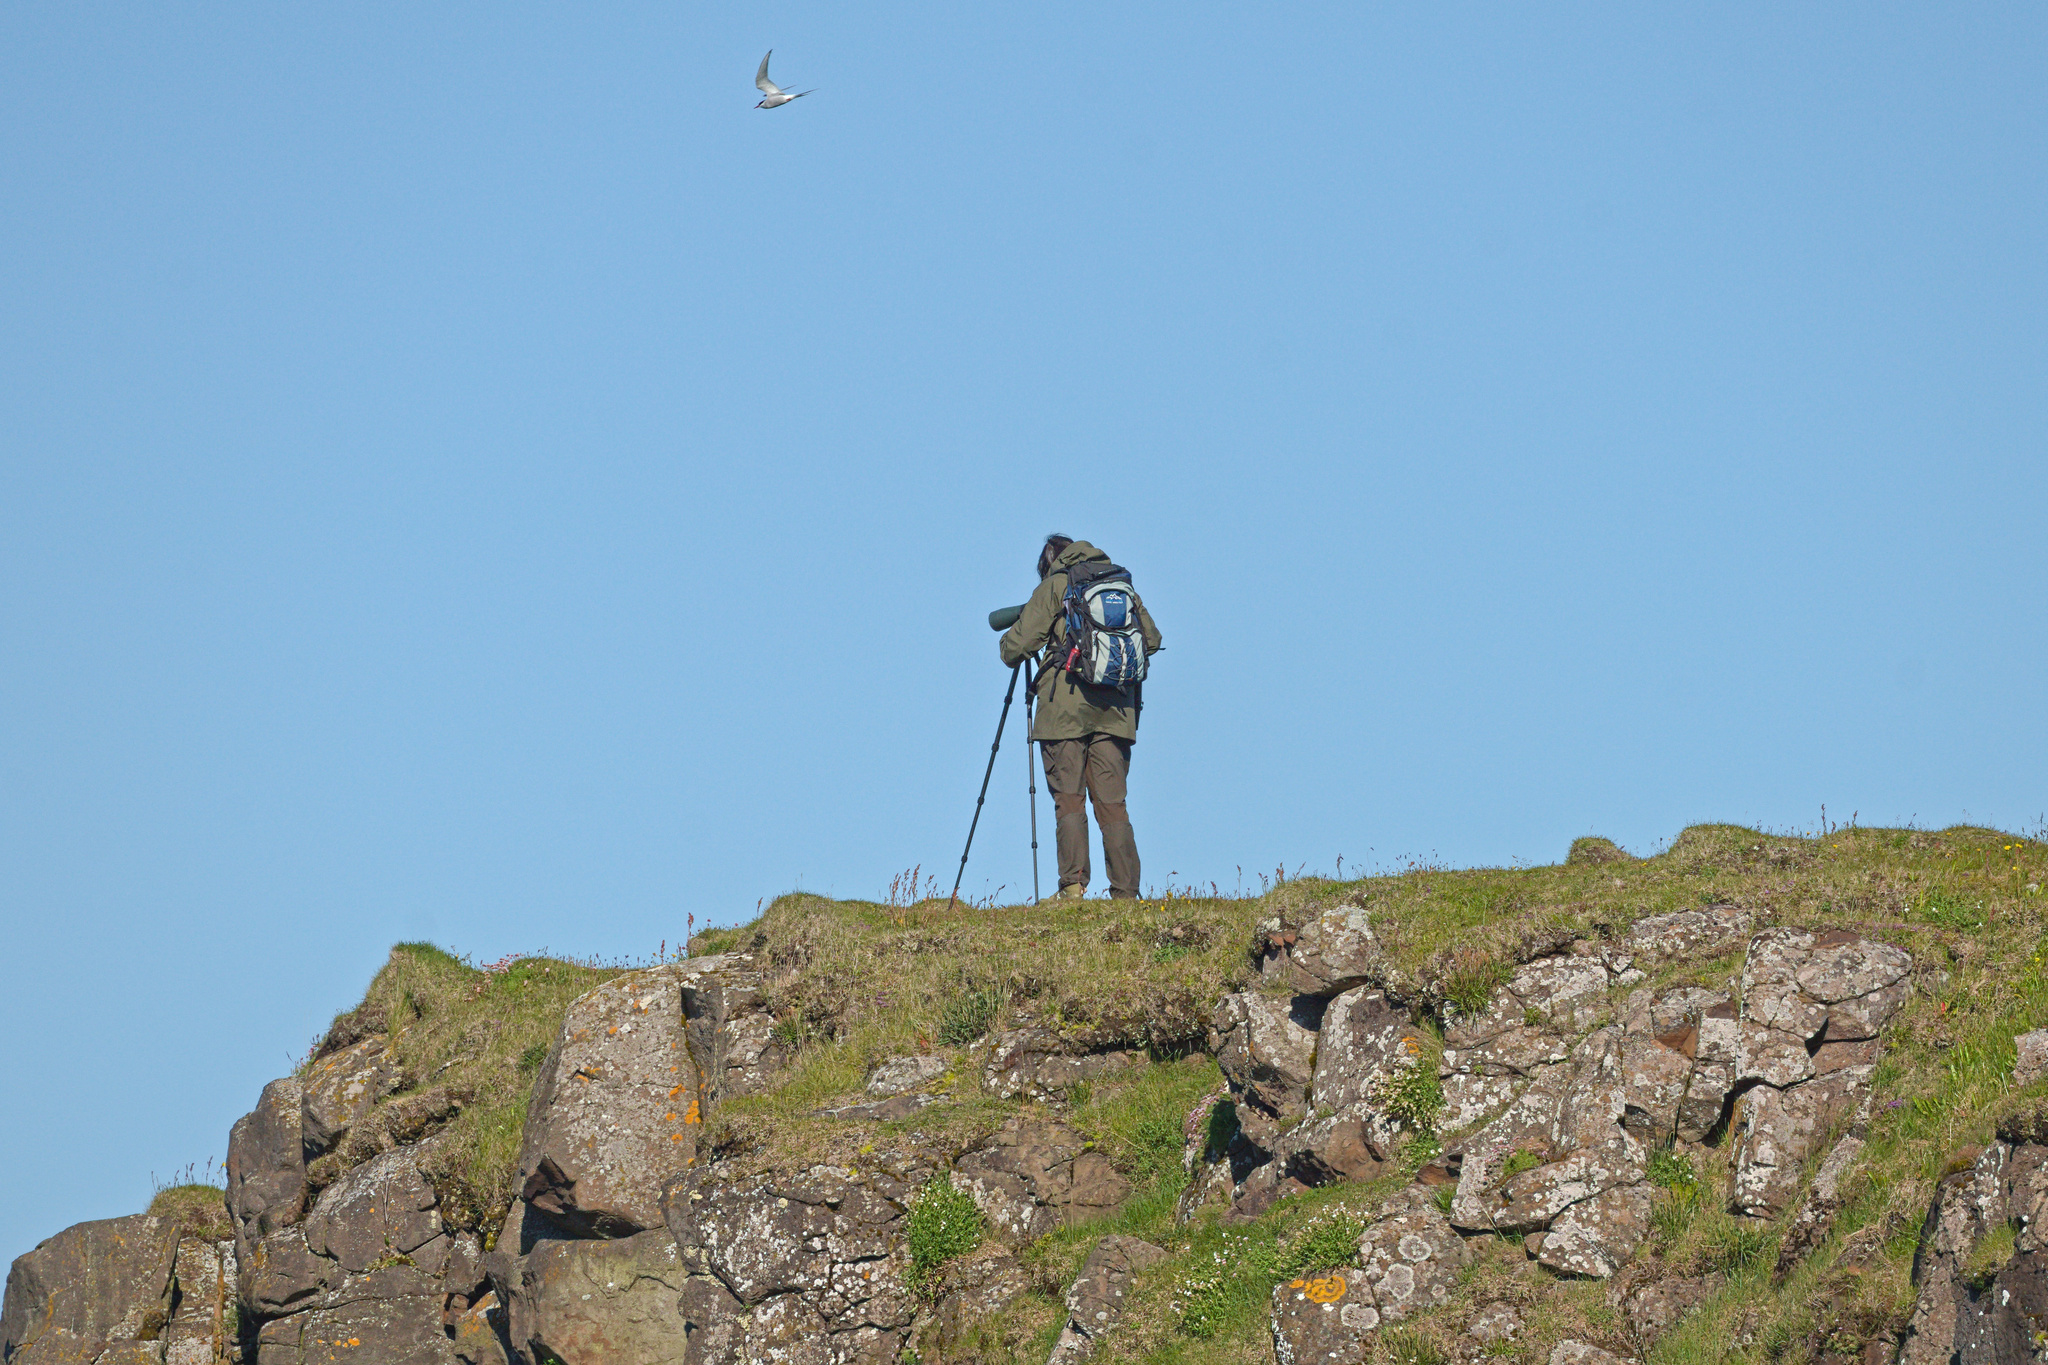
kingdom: Animalia
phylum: Chordata
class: Aves
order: Charadriiformes
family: Laridae
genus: Sterna
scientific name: Sterna paradisaea
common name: Arctic tern
